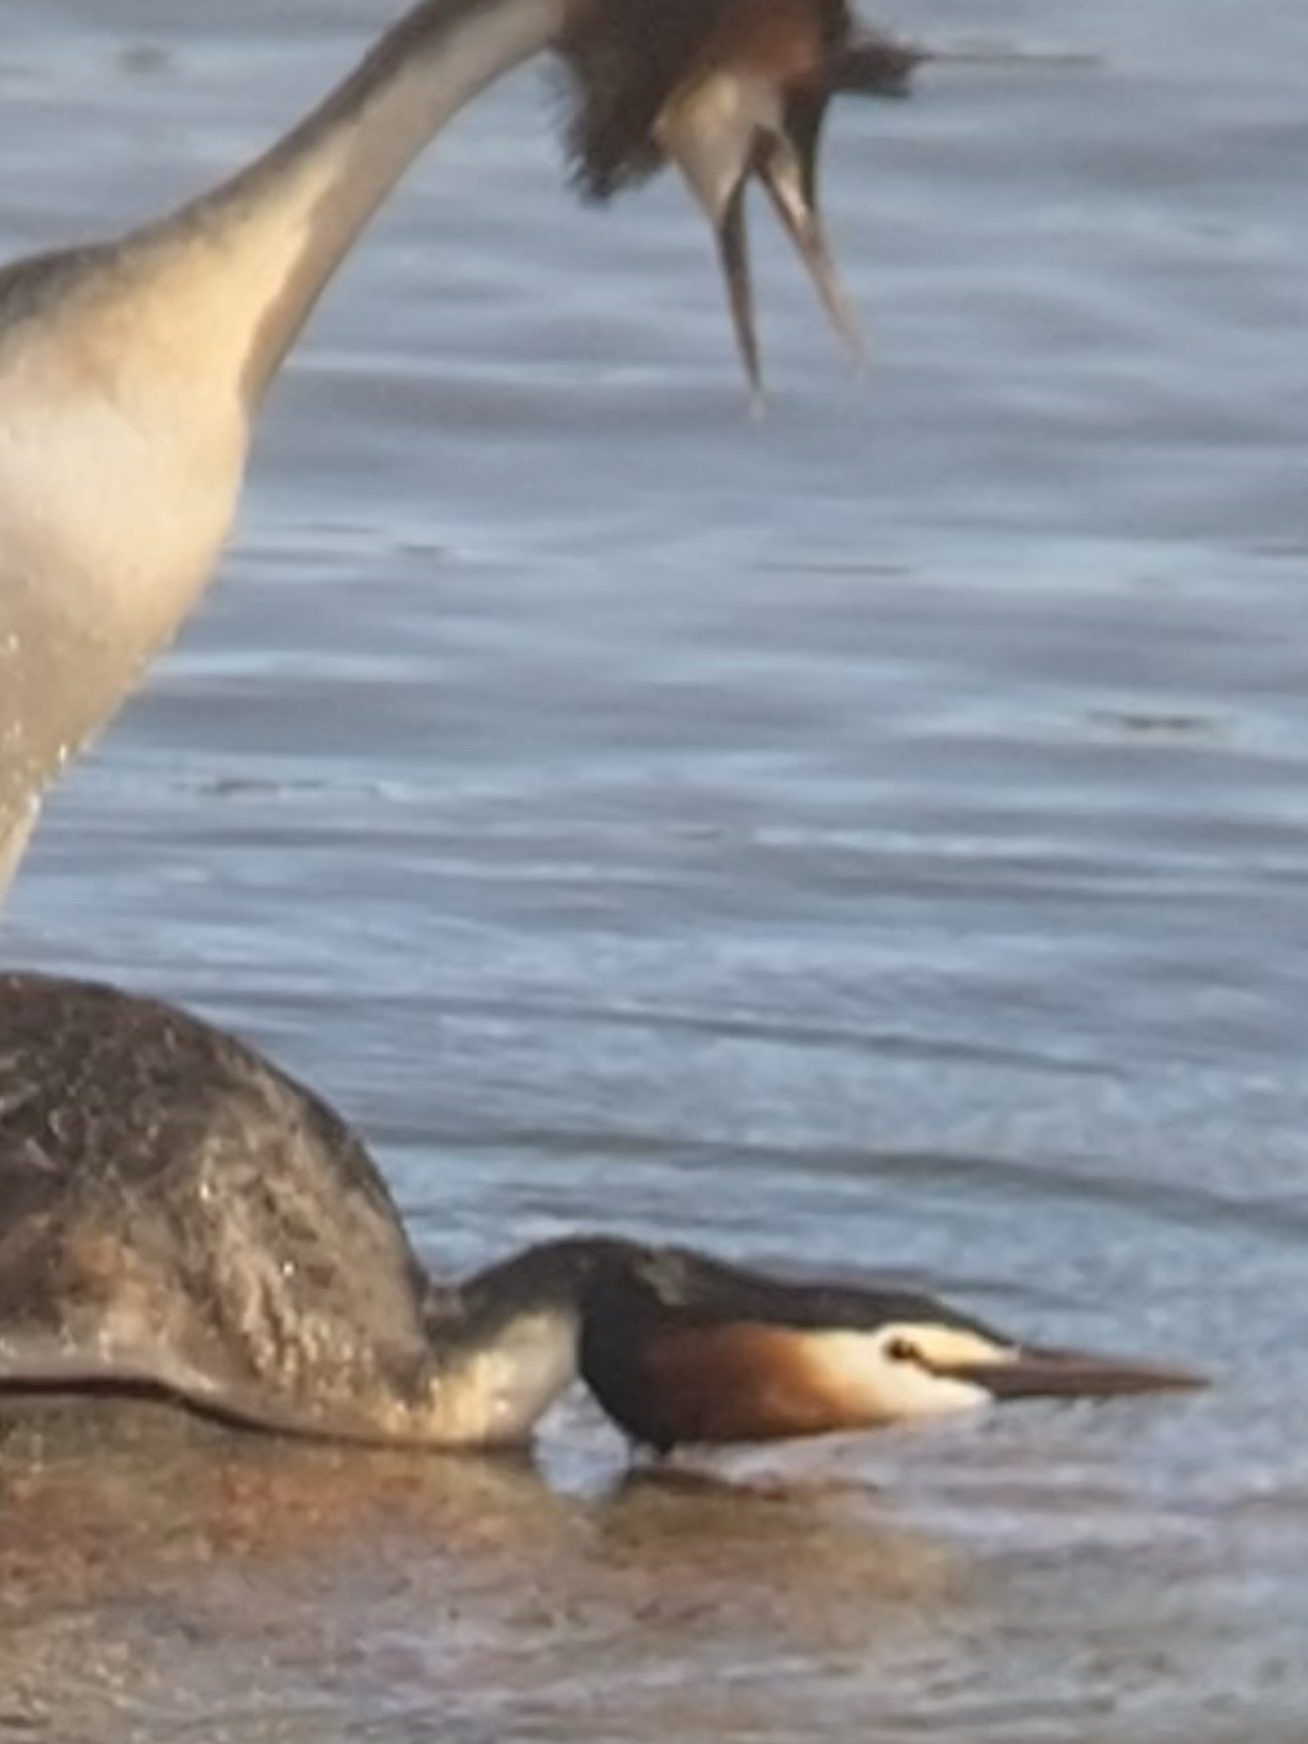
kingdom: Animalia
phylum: Chordata
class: Aves
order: Podicipediformes
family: Podicipedidae
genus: Podiceps
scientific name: Podiceps cristatus
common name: Great crested grebe
